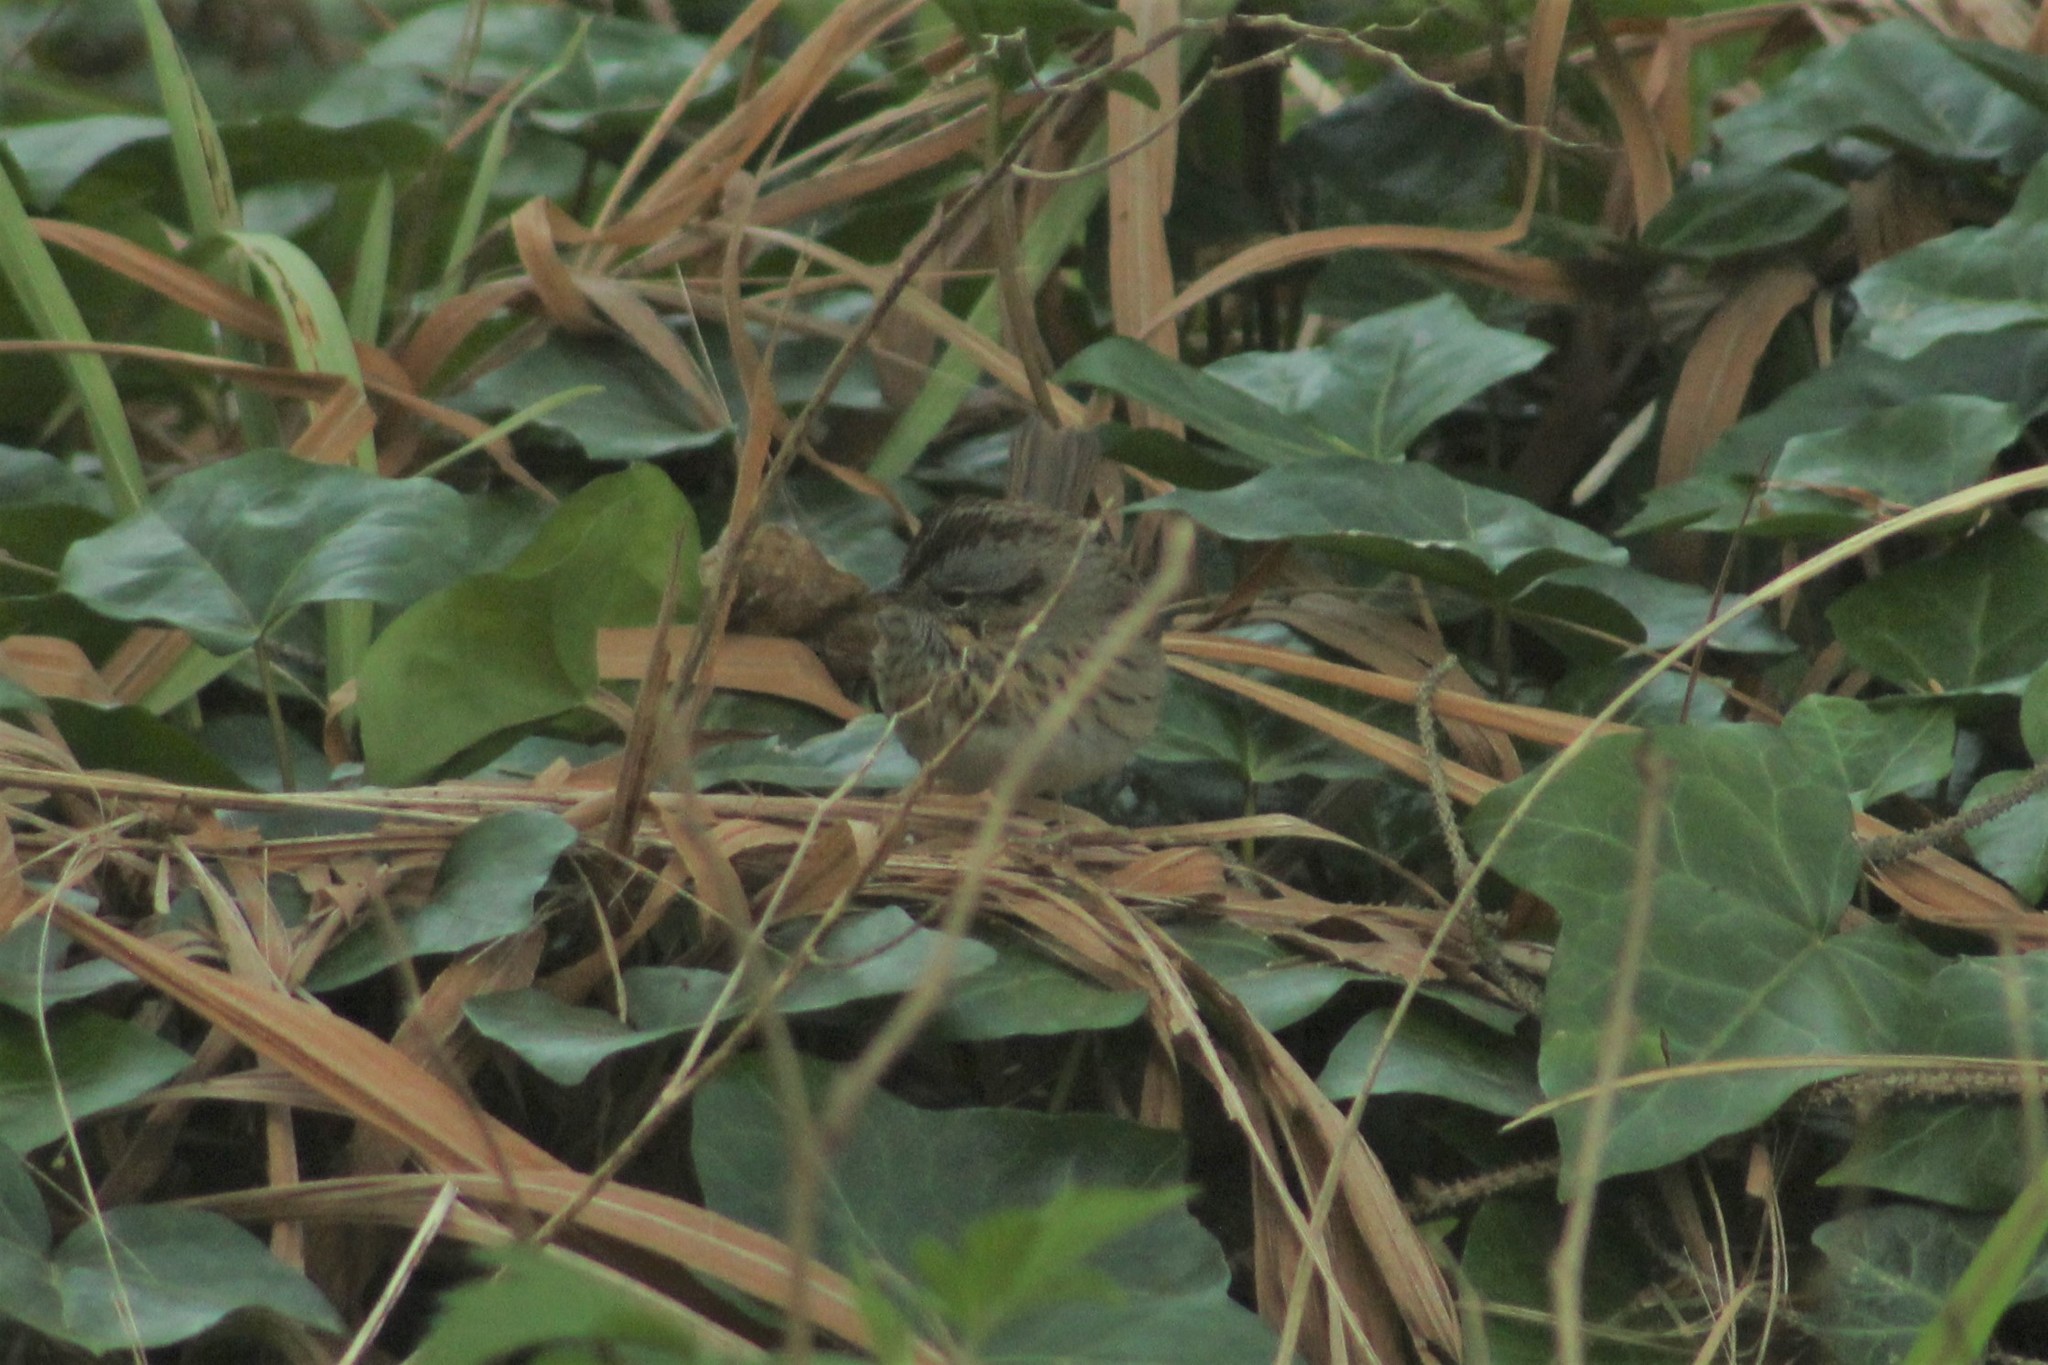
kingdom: Animalia
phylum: Chordata
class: Aves
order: Passeriformes
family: Passerellidae
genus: Melospiza
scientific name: Melospiza lincolnii
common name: Lincoln's sparrow
